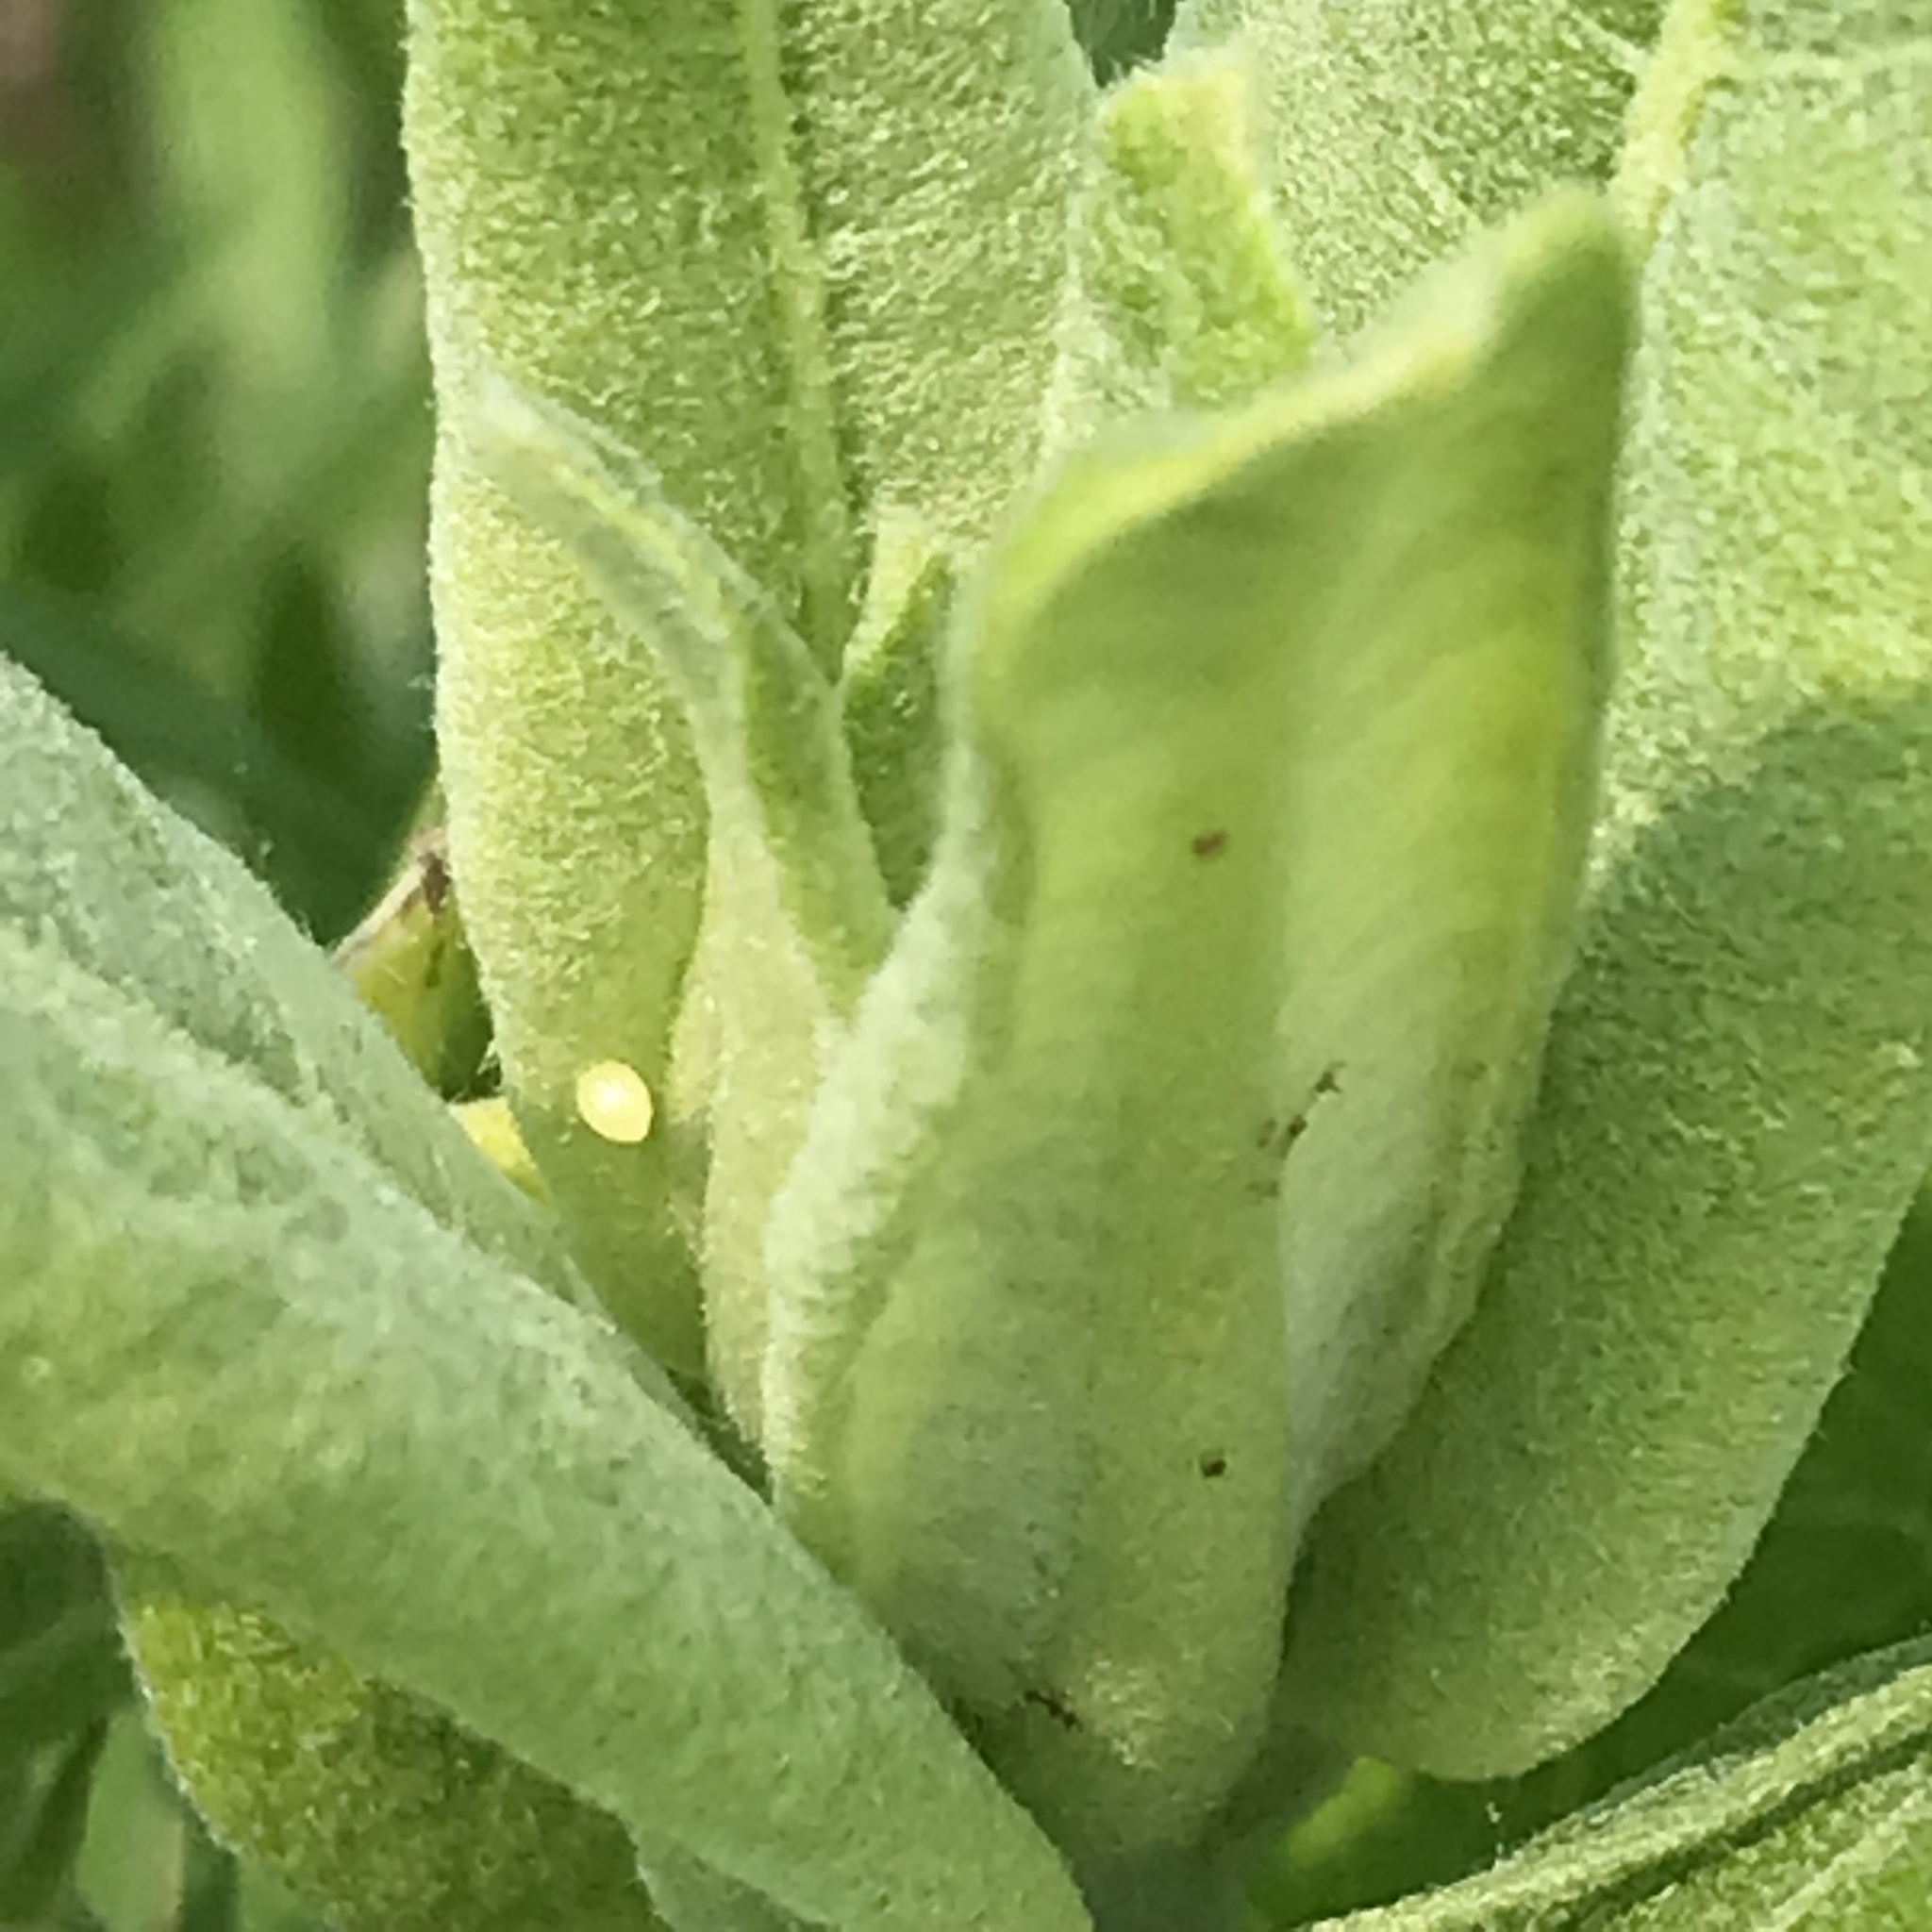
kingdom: Animalia
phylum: Arthropoda
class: Insecta
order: Lepidoptera
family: Nymphalidae
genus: Danaus
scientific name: Danaus plexippus
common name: Monarch
